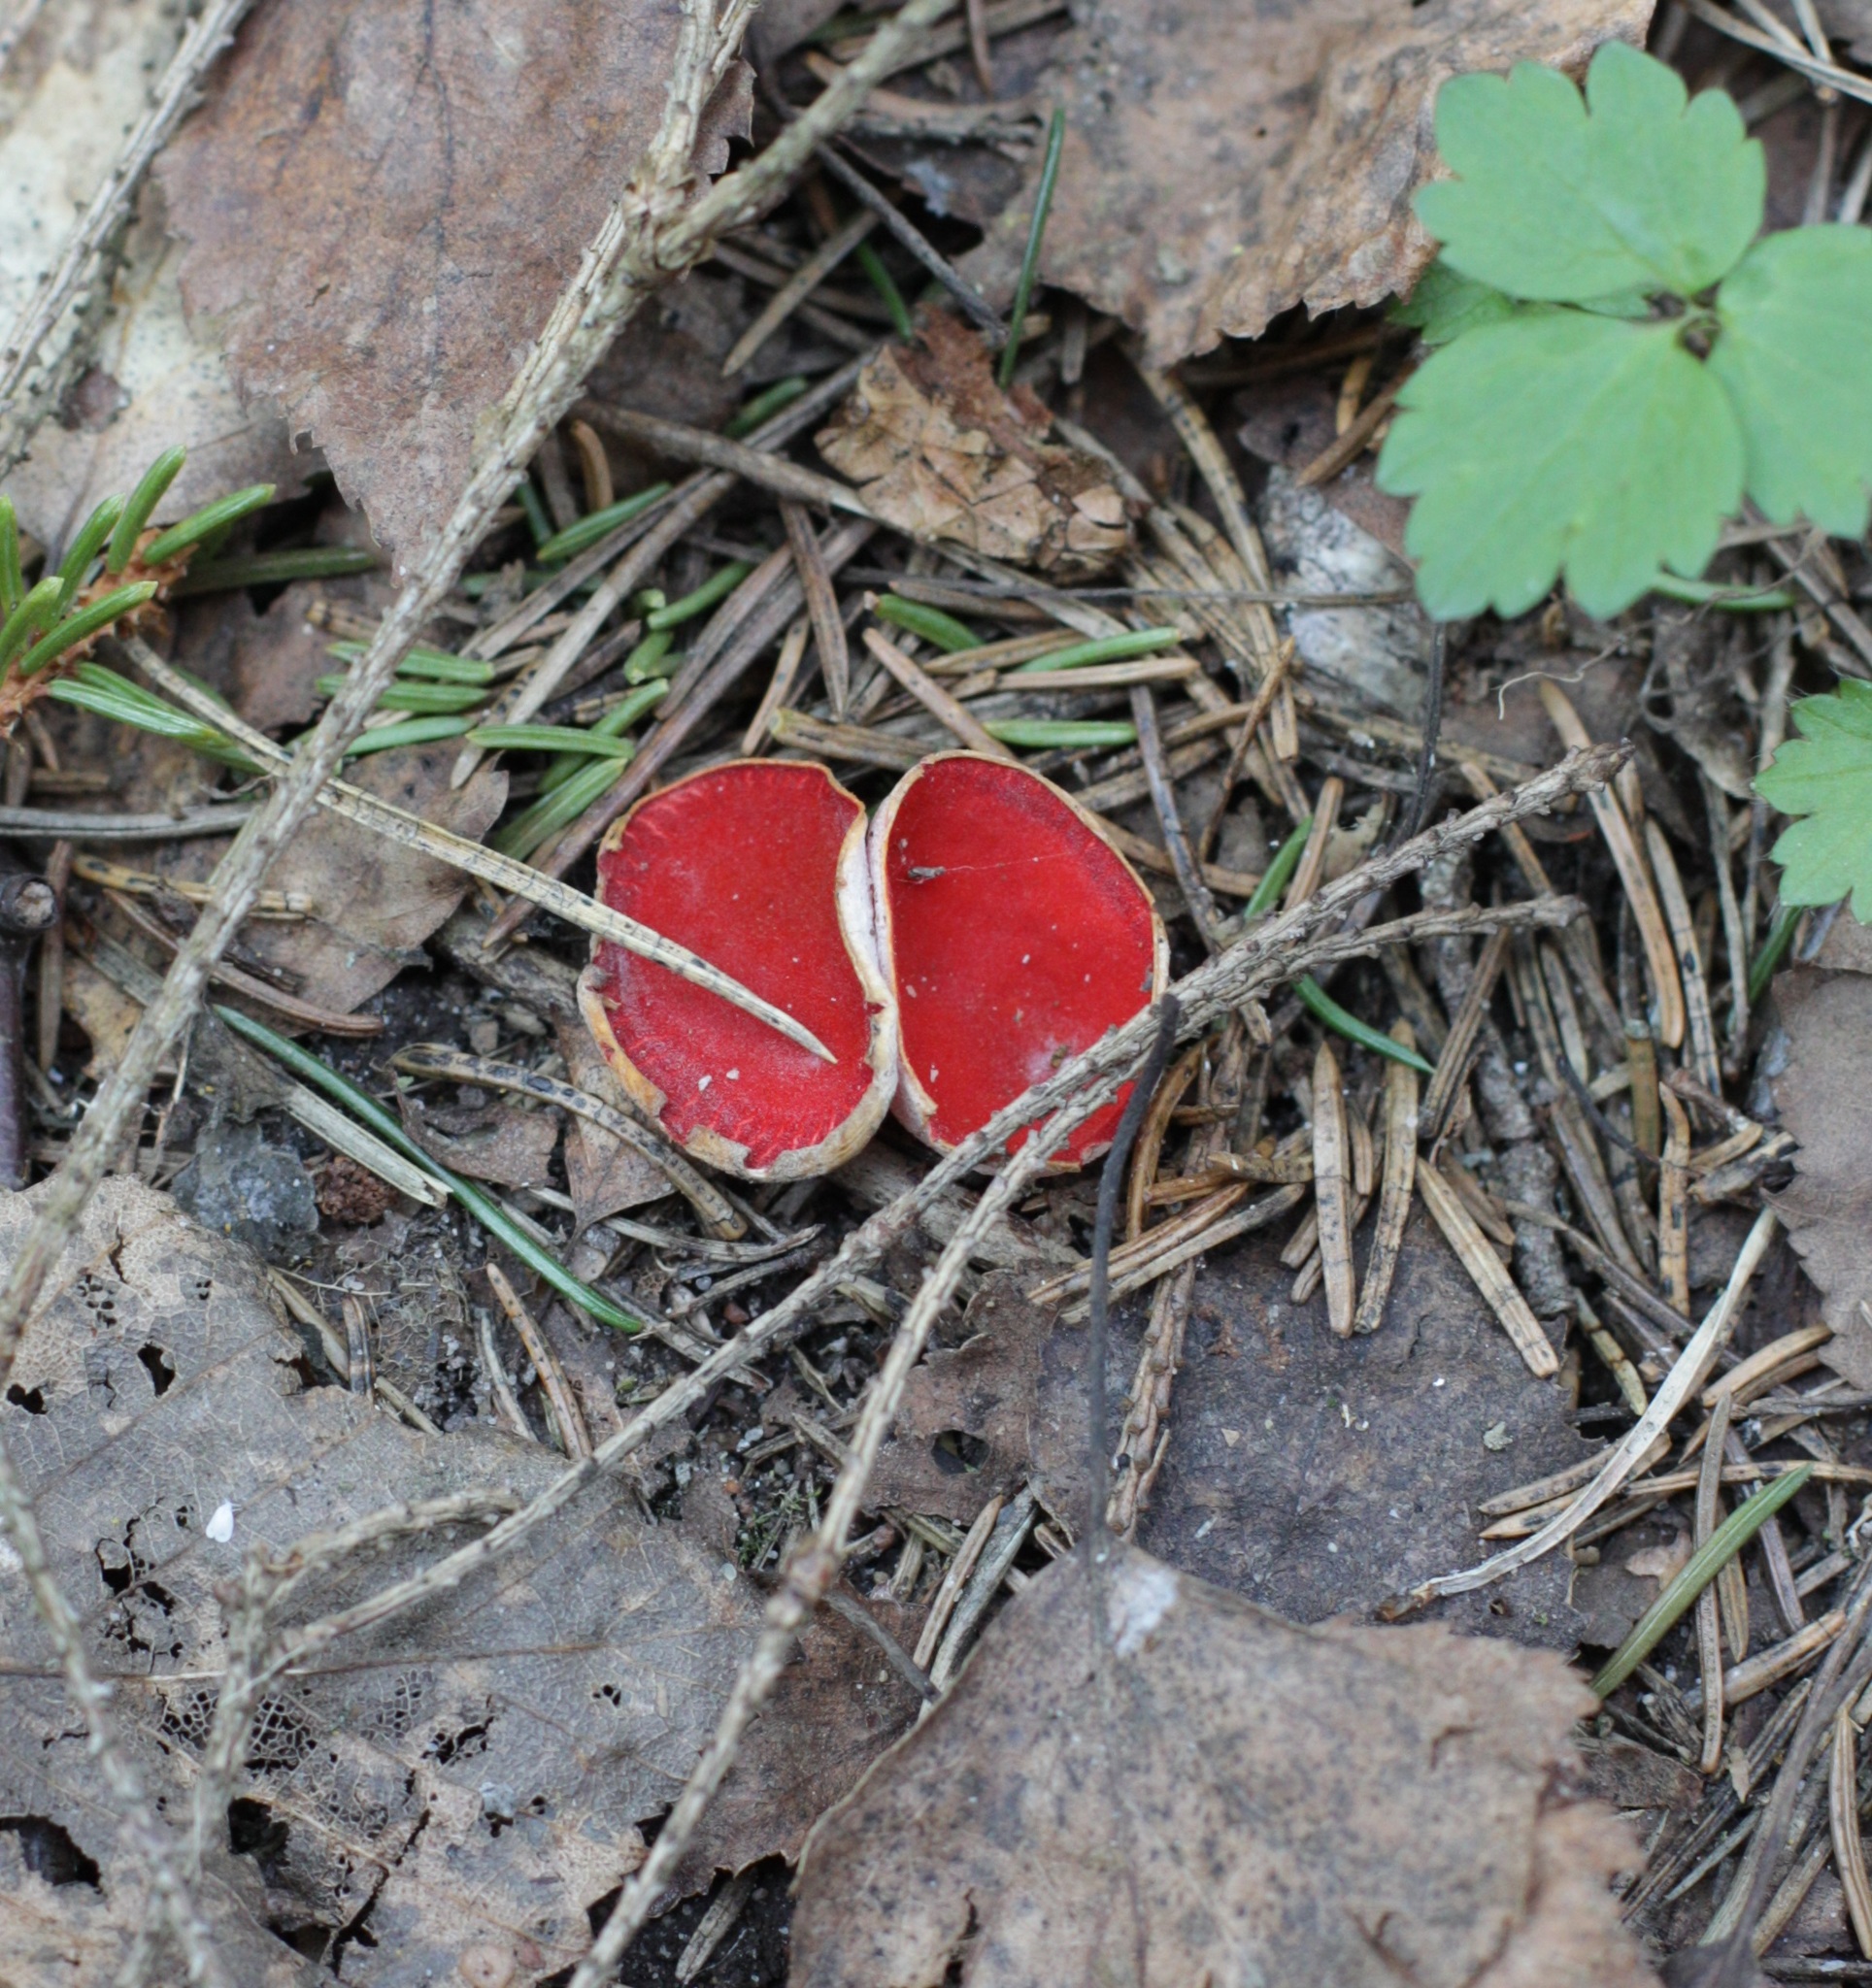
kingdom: Fungi
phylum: Ascomycota
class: Pezizomycetes
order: Pezizales
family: Sarcoscyphaceae
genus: Sarcoscypha
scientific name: Sarcoscypha
